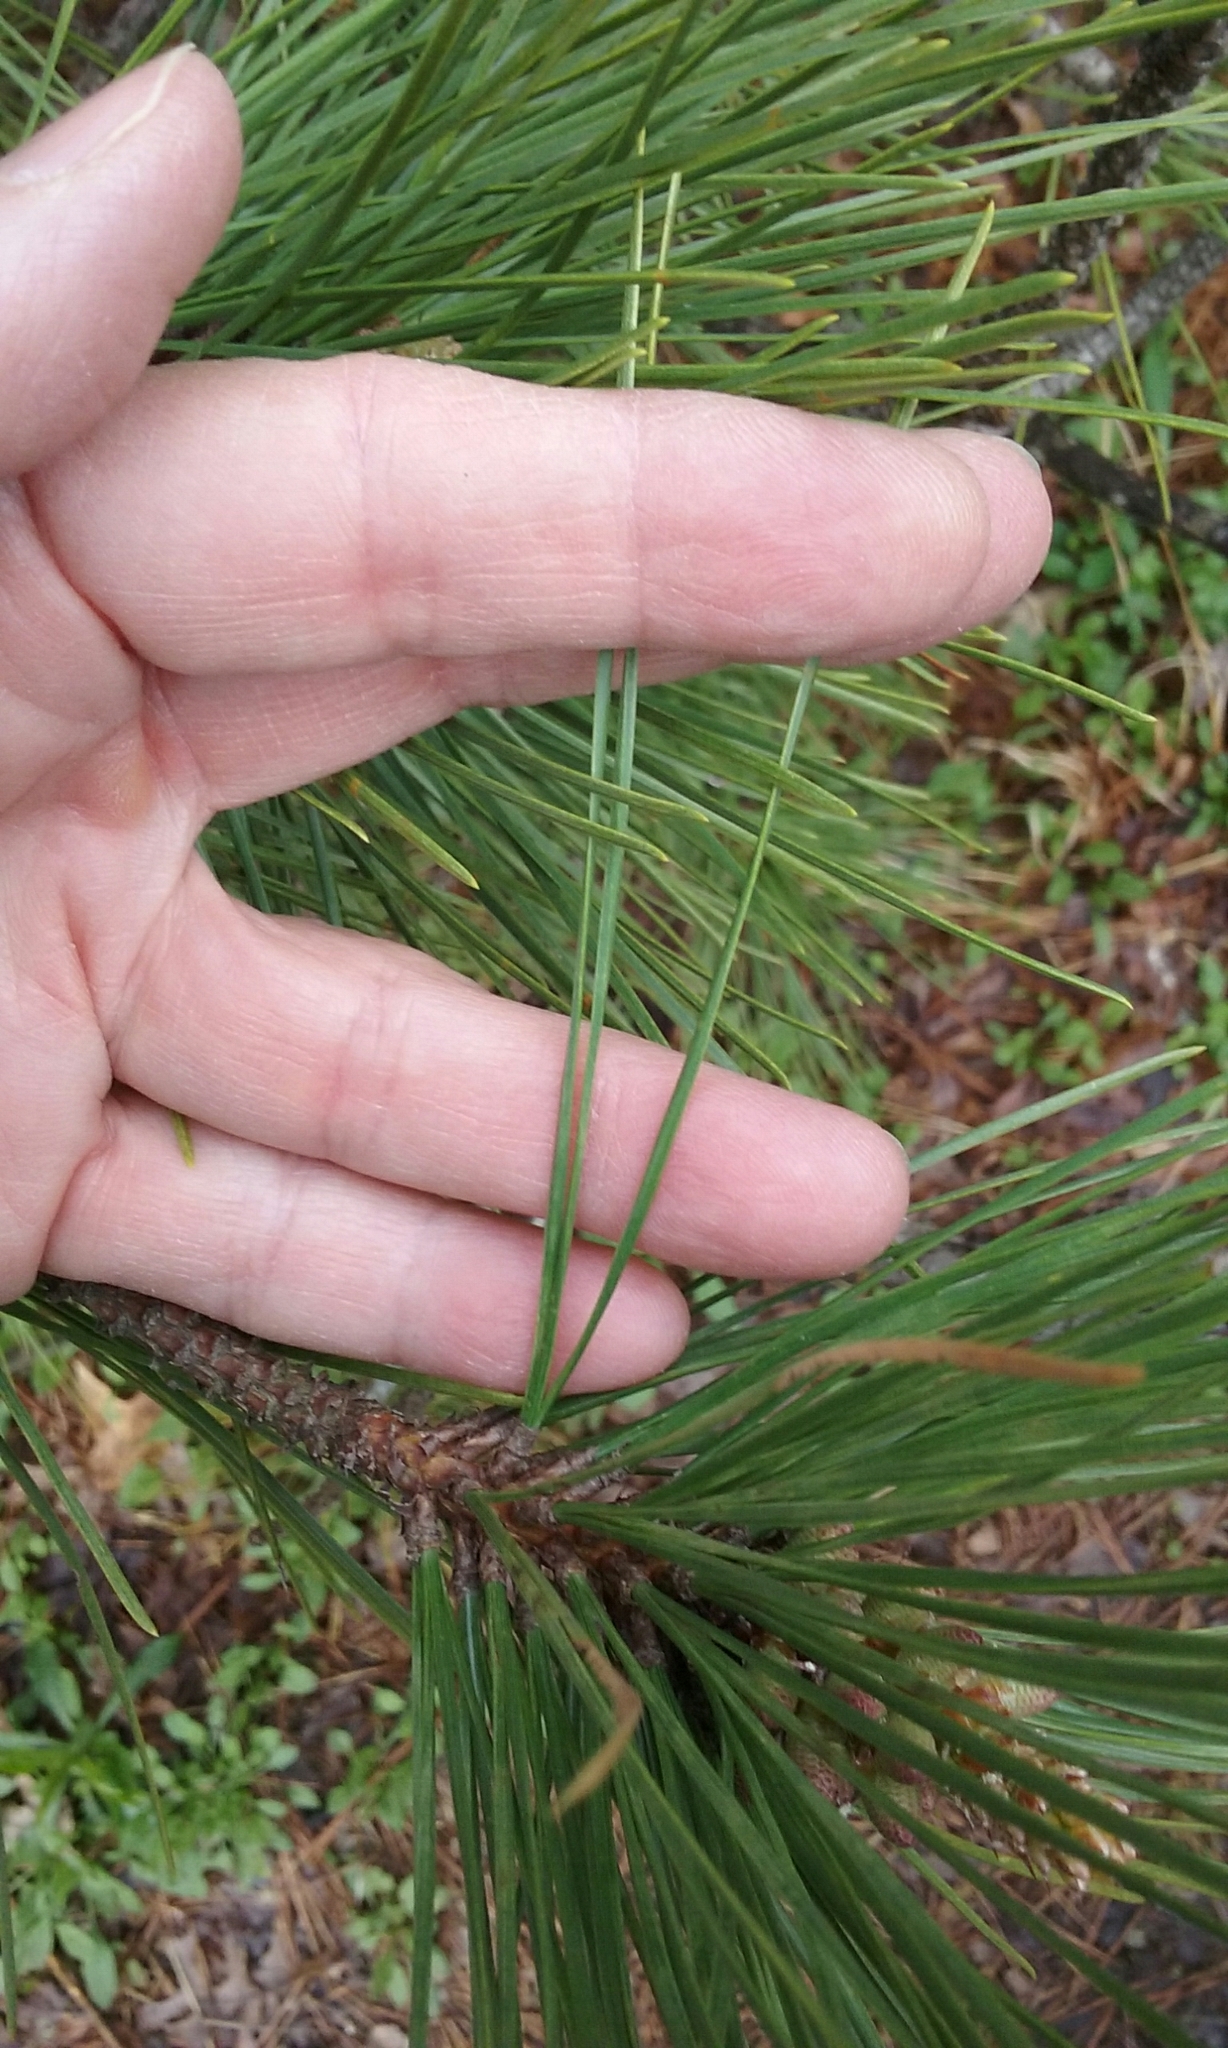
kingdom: Plantae
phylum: Tracheophyta
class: Pinopsida
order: Pinales
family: Pinaceae
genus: Pinus
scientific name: Pinus rigida
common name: Pitch pine
